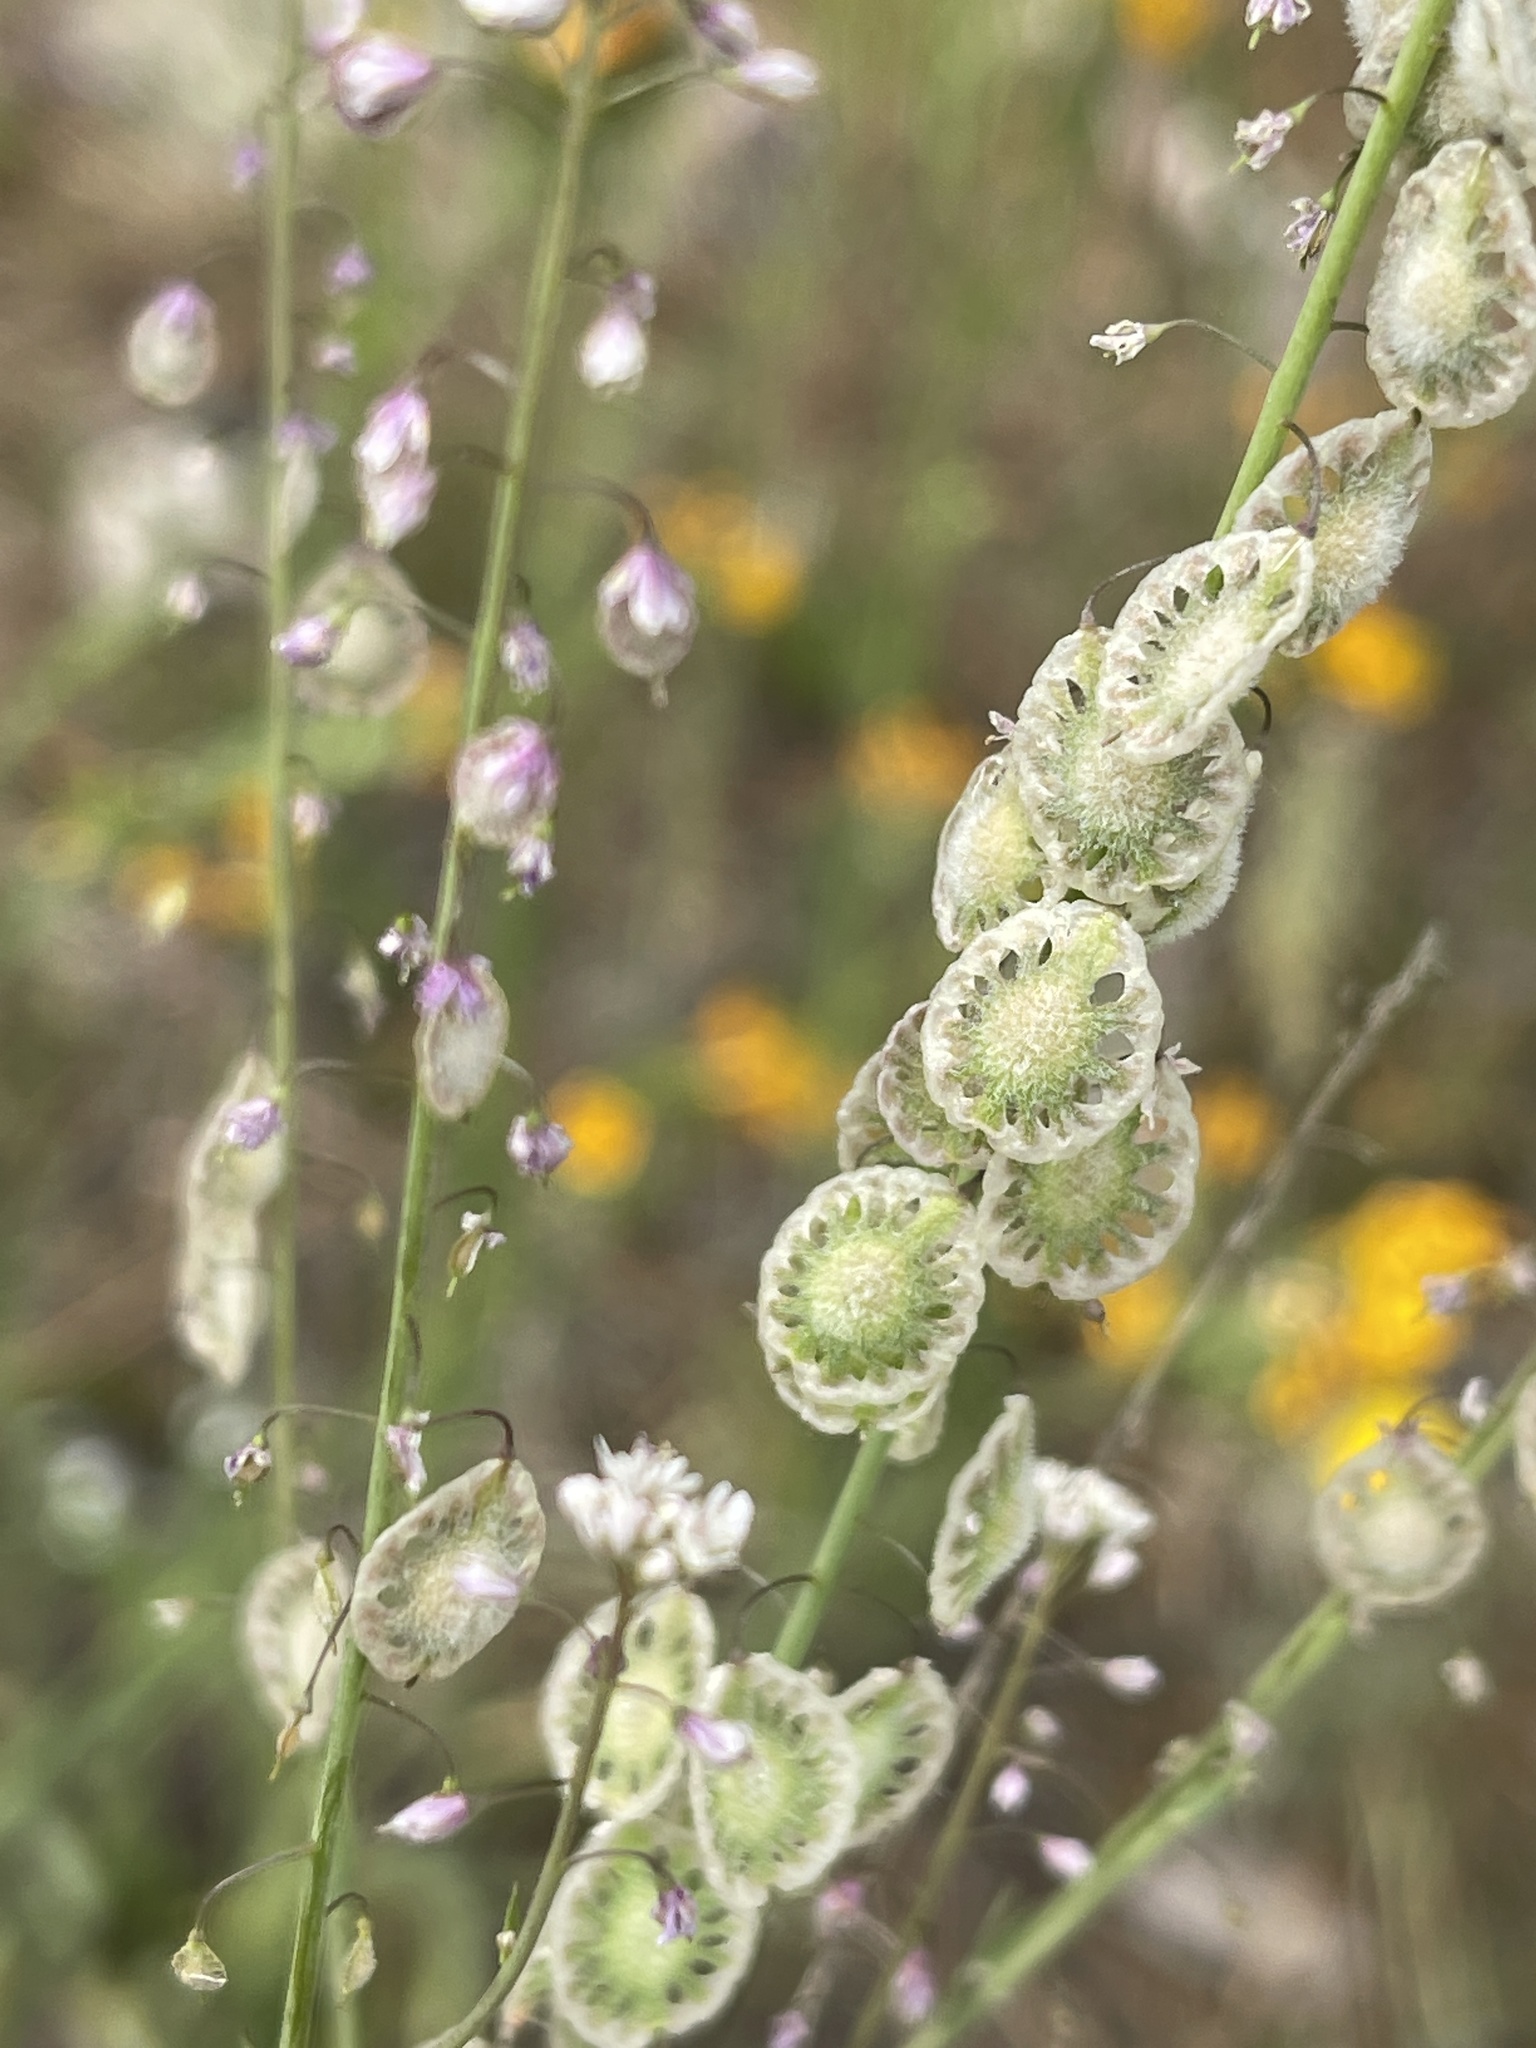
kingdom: Plantae
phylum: Tracheophyta
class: Magnoliopsida
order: Brassicales
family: Brassicaceae
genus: Thysanocarpus
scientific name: Thysanocarpus curvipes
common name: Sand fringepod
